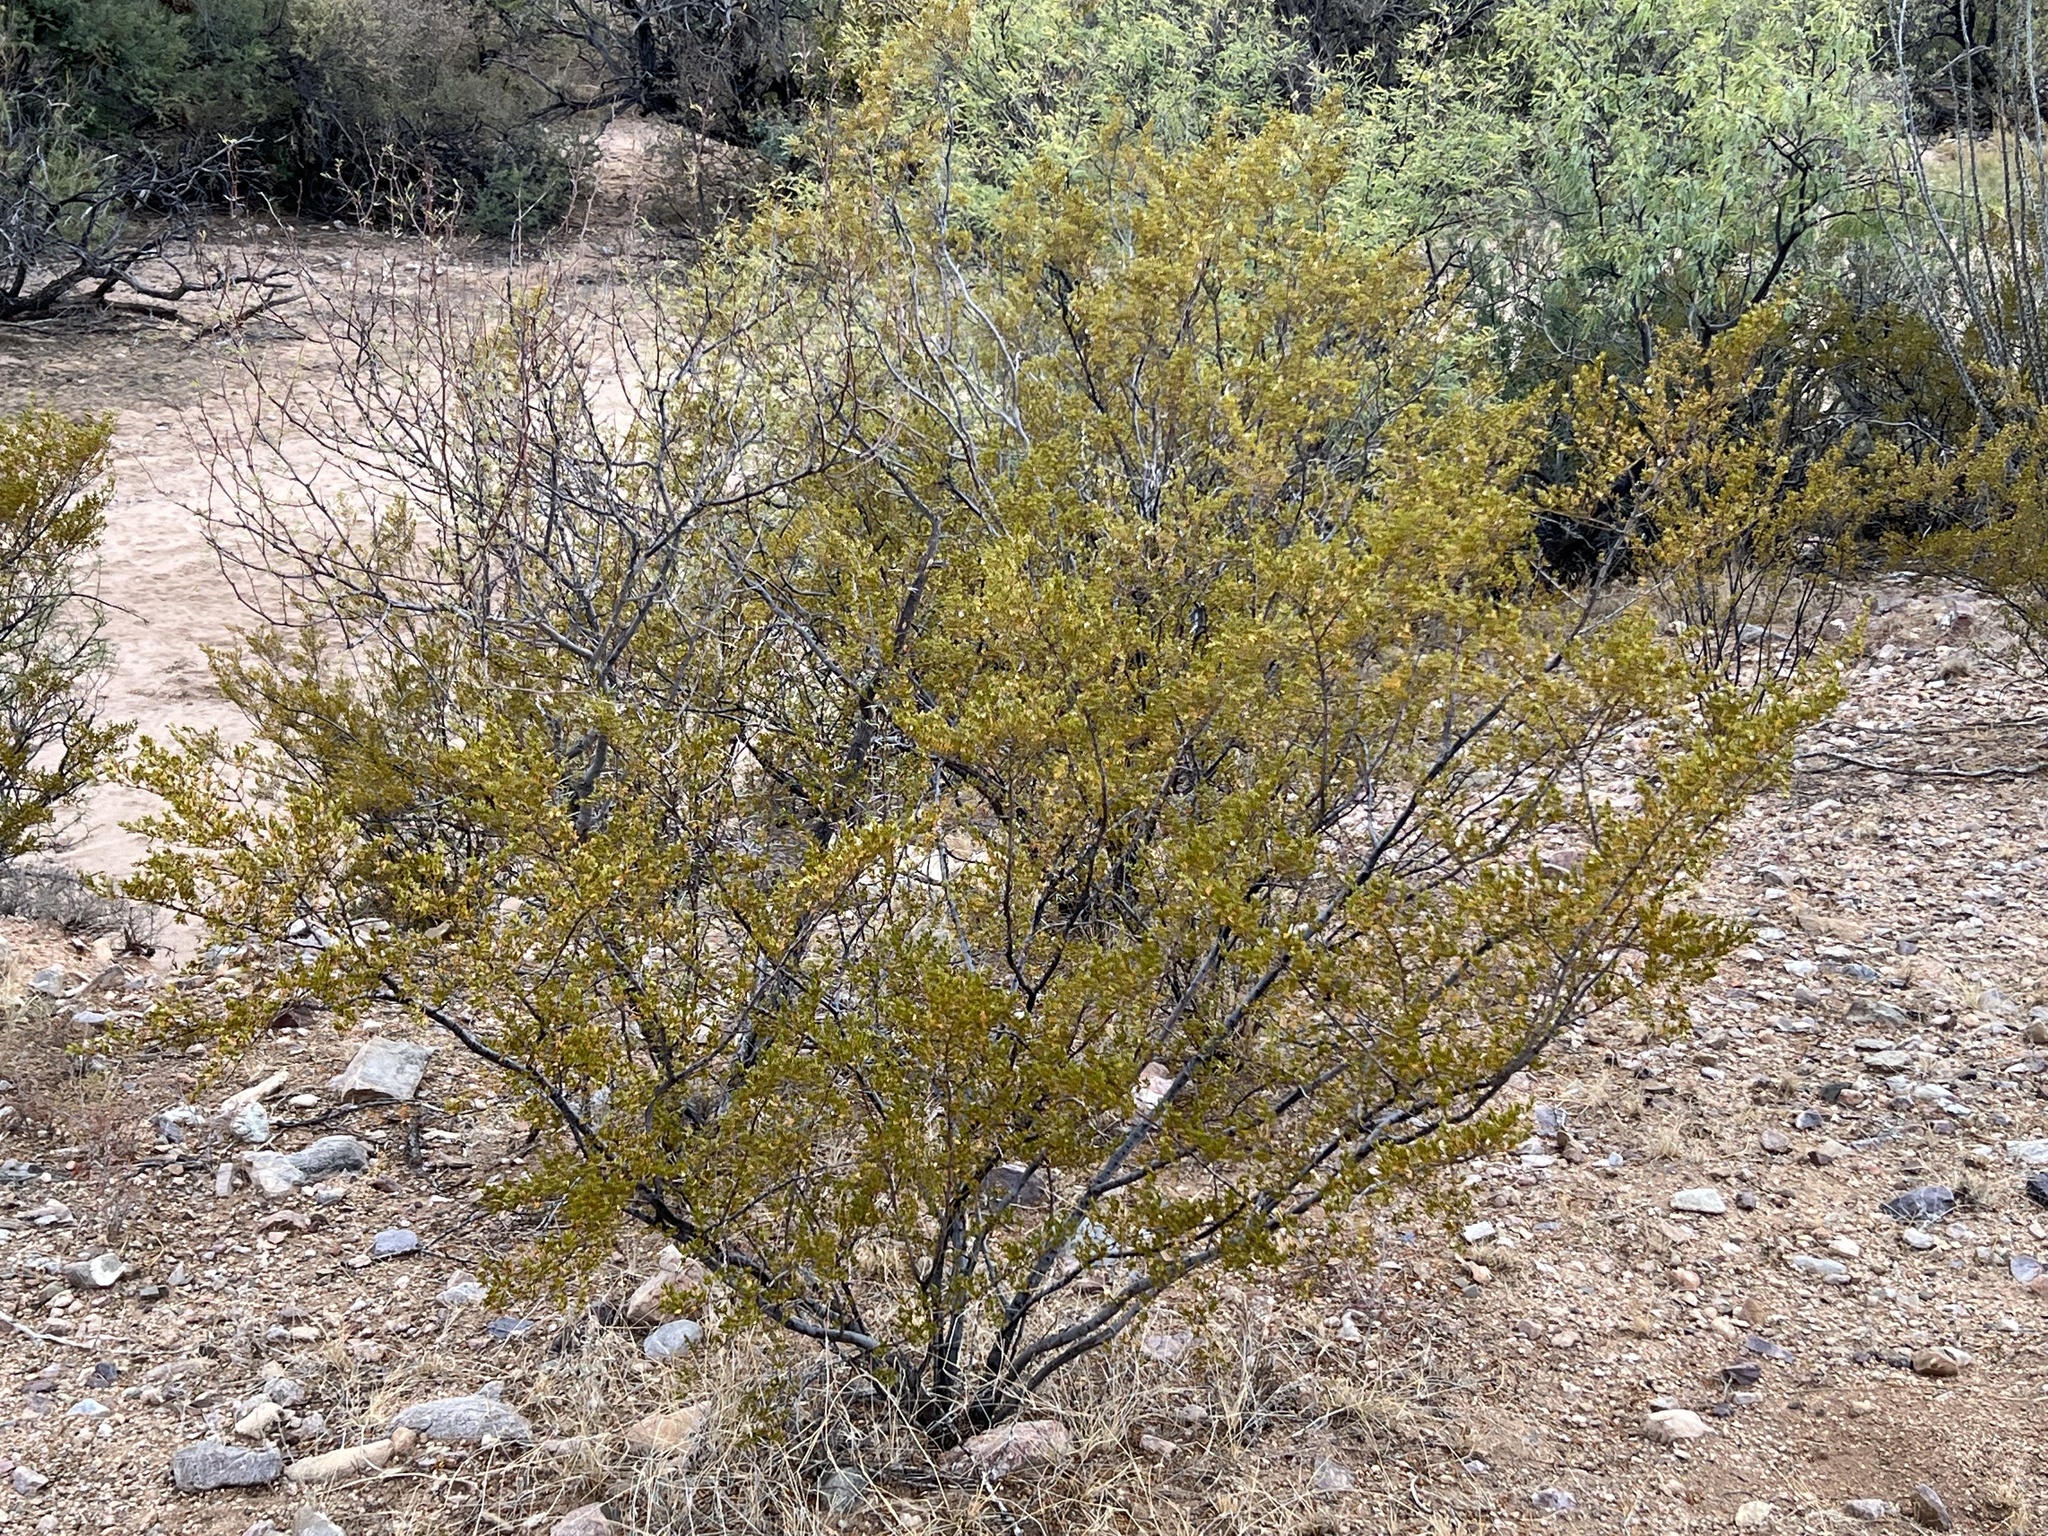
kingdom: Plantae
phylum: Tracheophyta
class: Magnoliopsida
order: Zygophyllales
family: Zygophyllaceae
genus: Larrea
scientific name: Larrea tridentata
